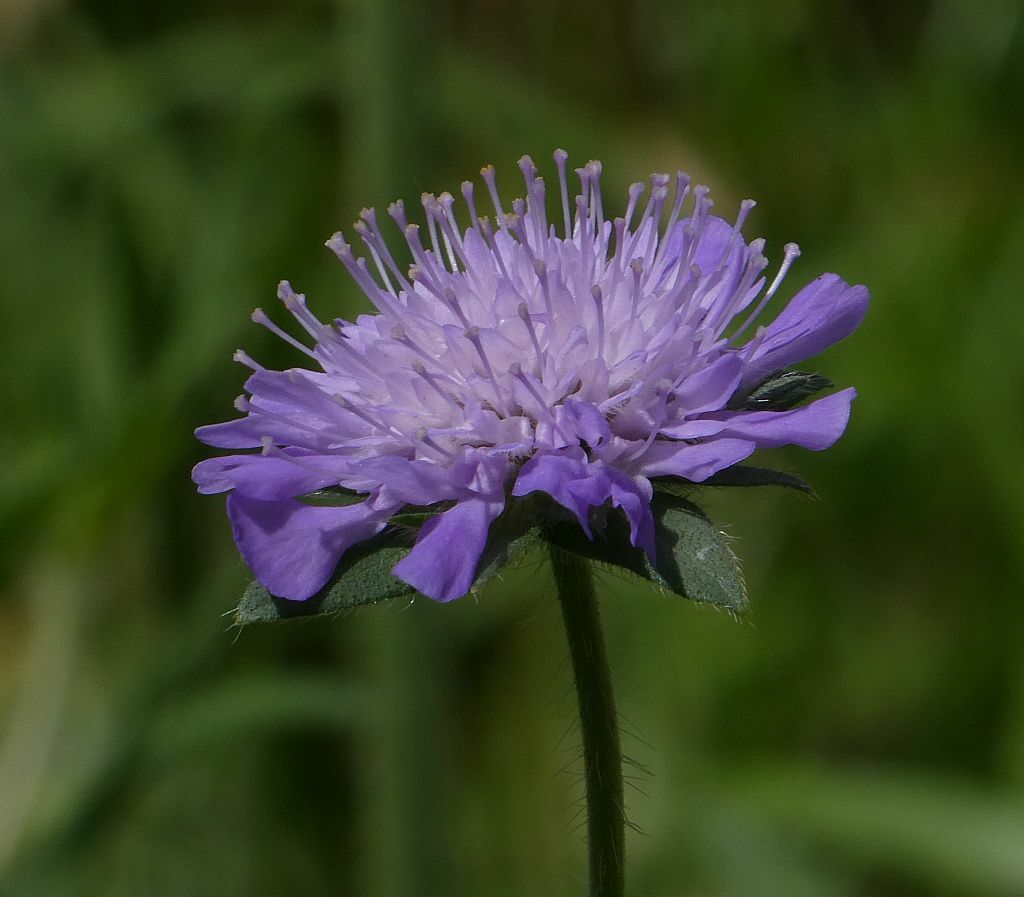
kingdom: Plantae
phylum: Tracheophyta
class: Magnoliopsida
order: Dipsacales
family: Caprifoliaceae
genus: Knautia
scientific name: Knautia arvensis
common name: Field scabiosa
